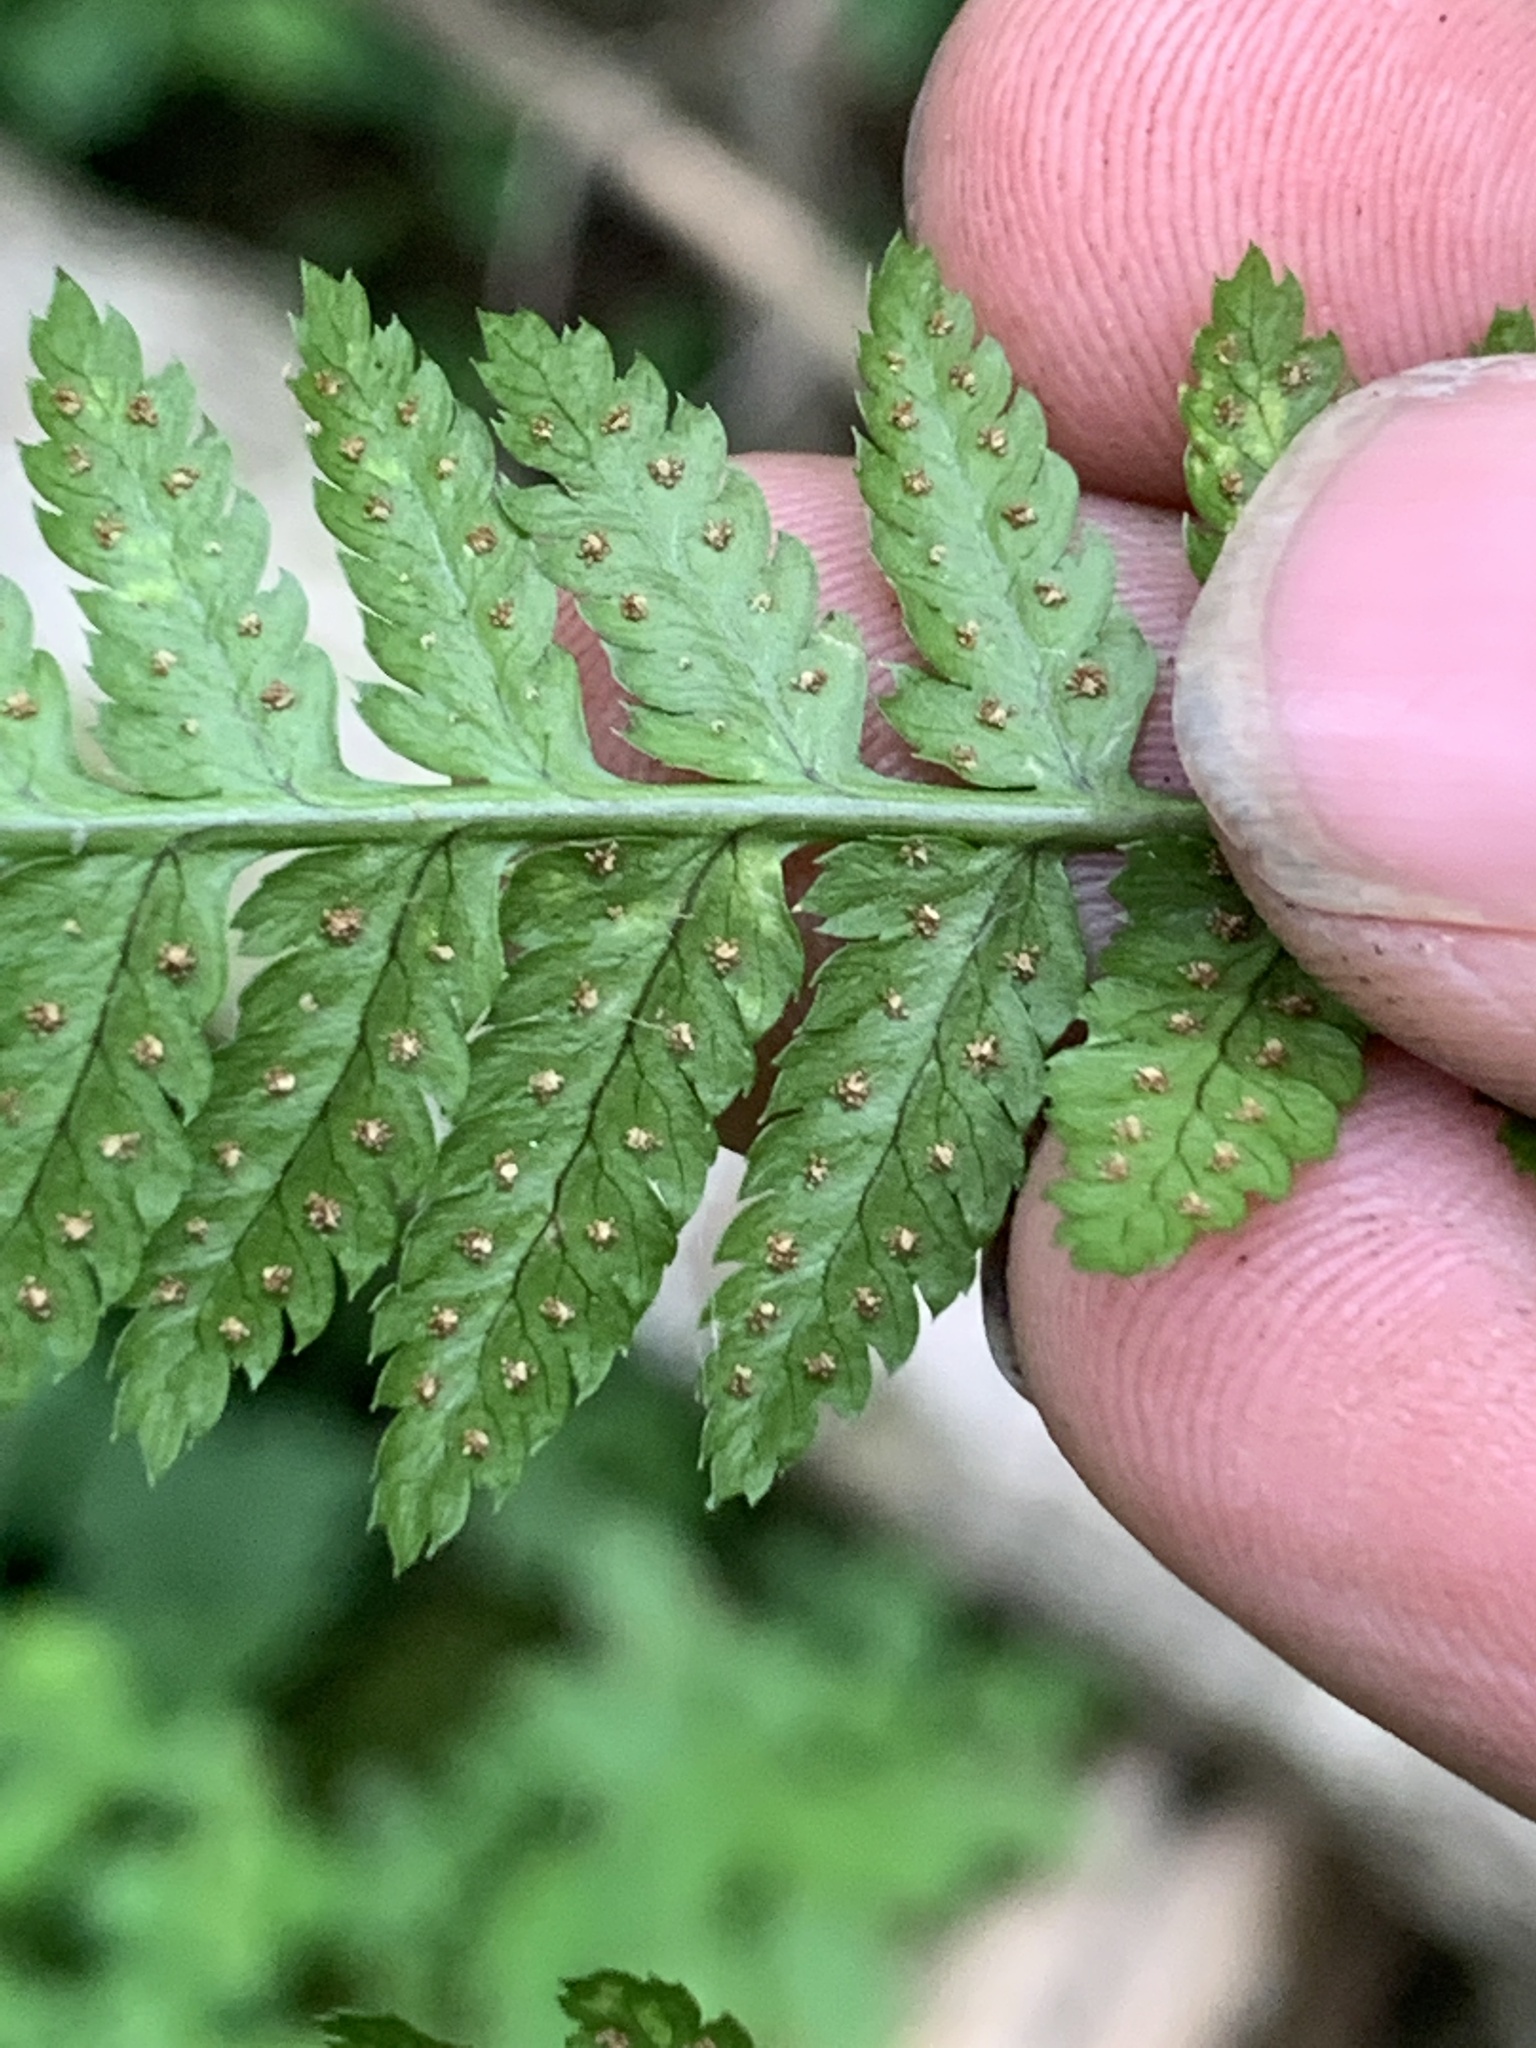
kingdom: Plantae
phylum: Tracheophyta
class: Polypodiopsida
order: Polypodiales
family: Dryopteridaceae
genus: Dryopteris
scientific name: Dryopteris cristata
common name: Crested wood fern
